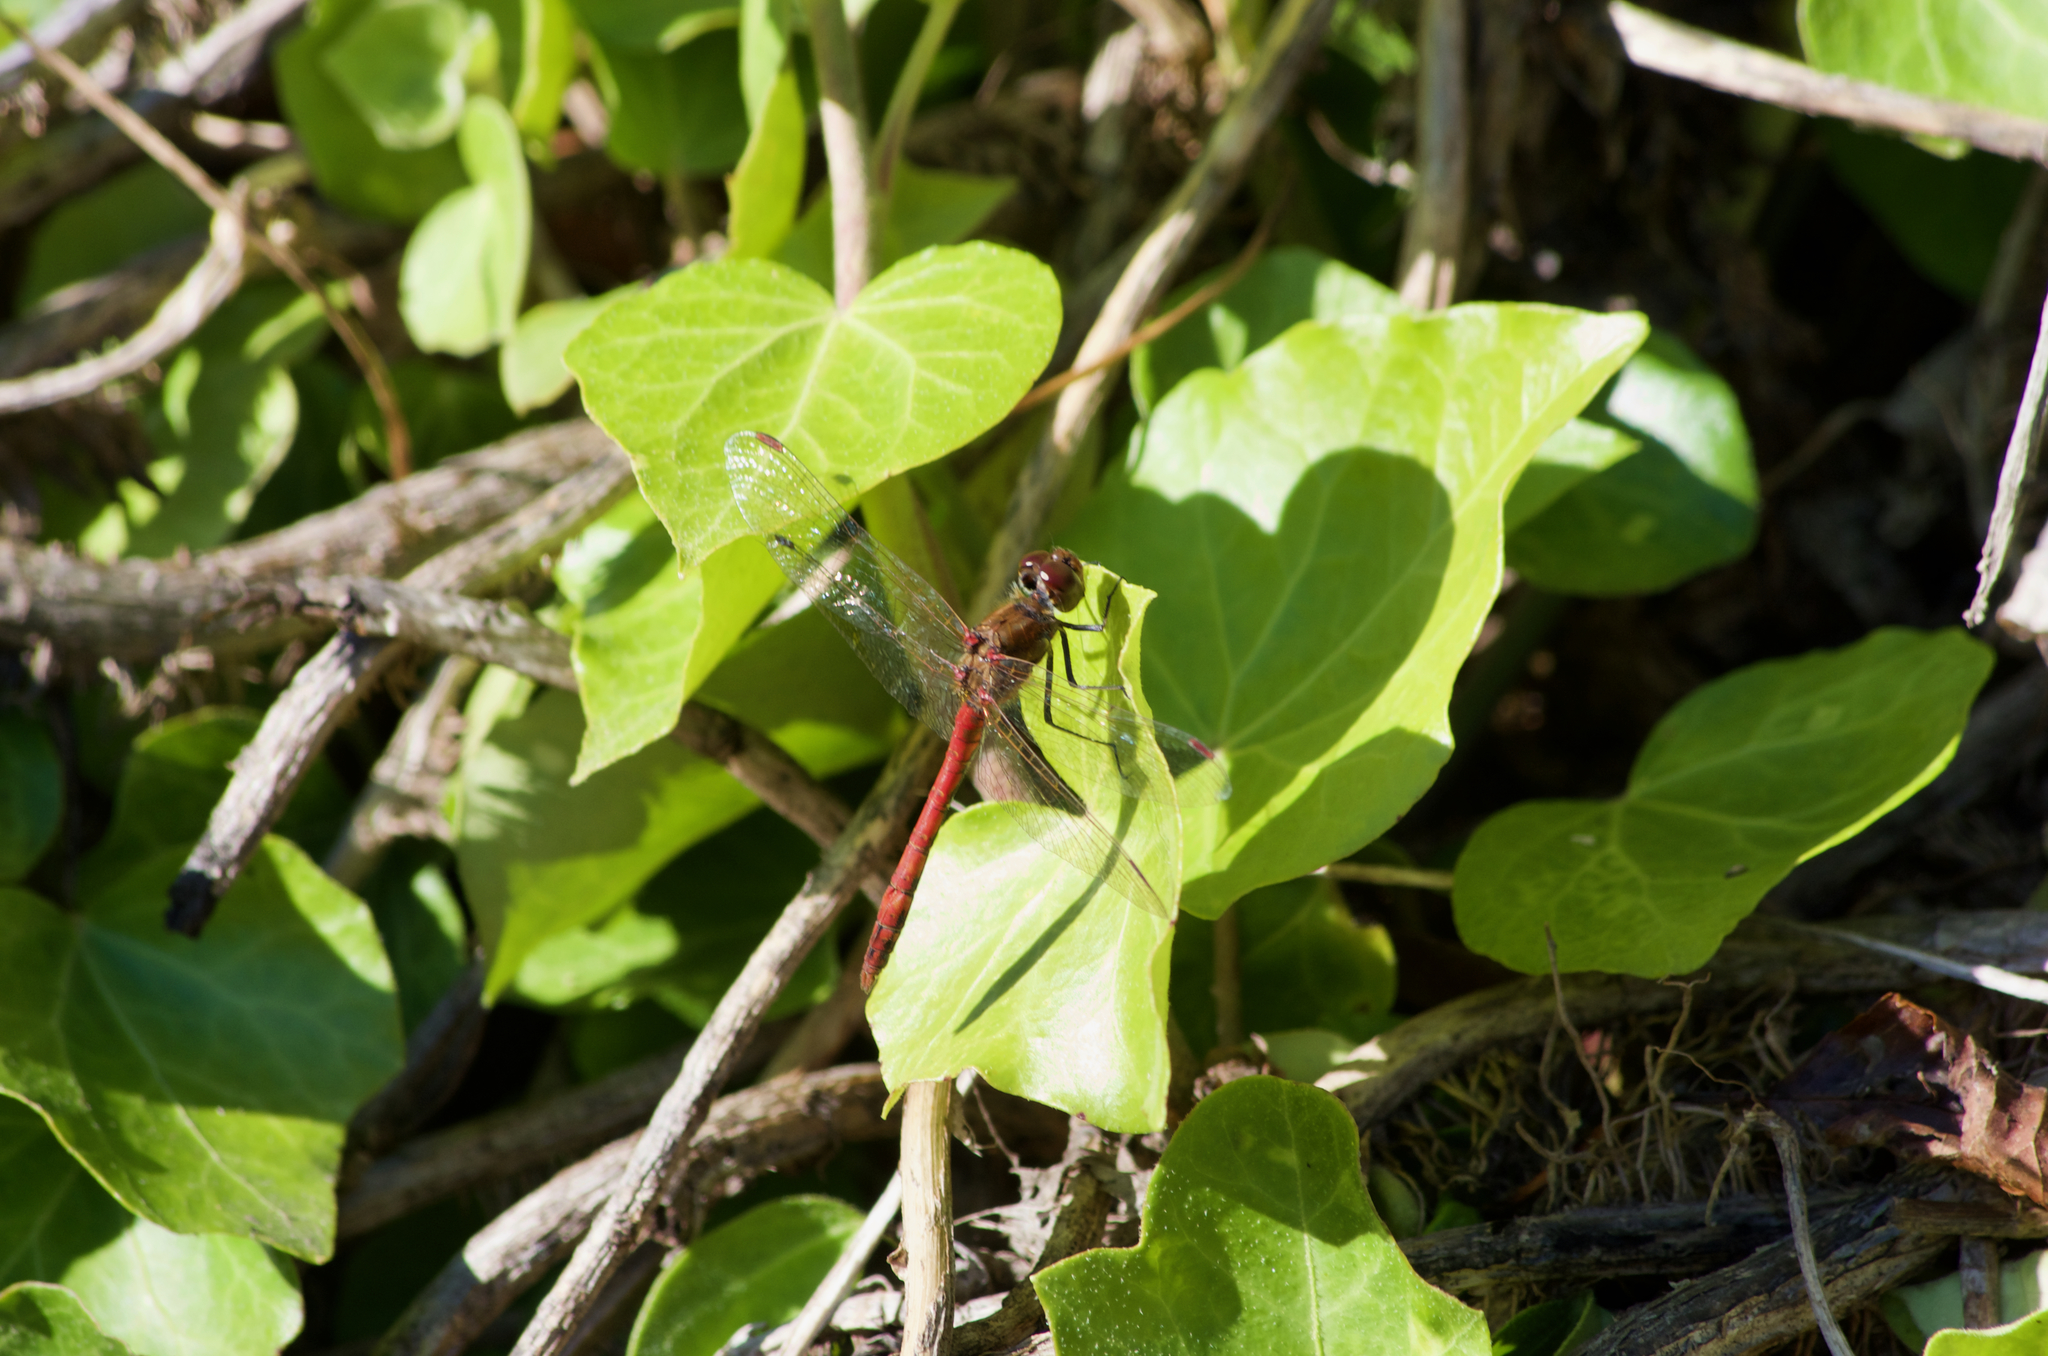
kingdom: Animalia
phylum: Arthropoda
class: Insecta
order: Odonata
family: Libellulidae
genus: Sympetrum
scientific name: Sympetrum striolatum
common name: Common darter
